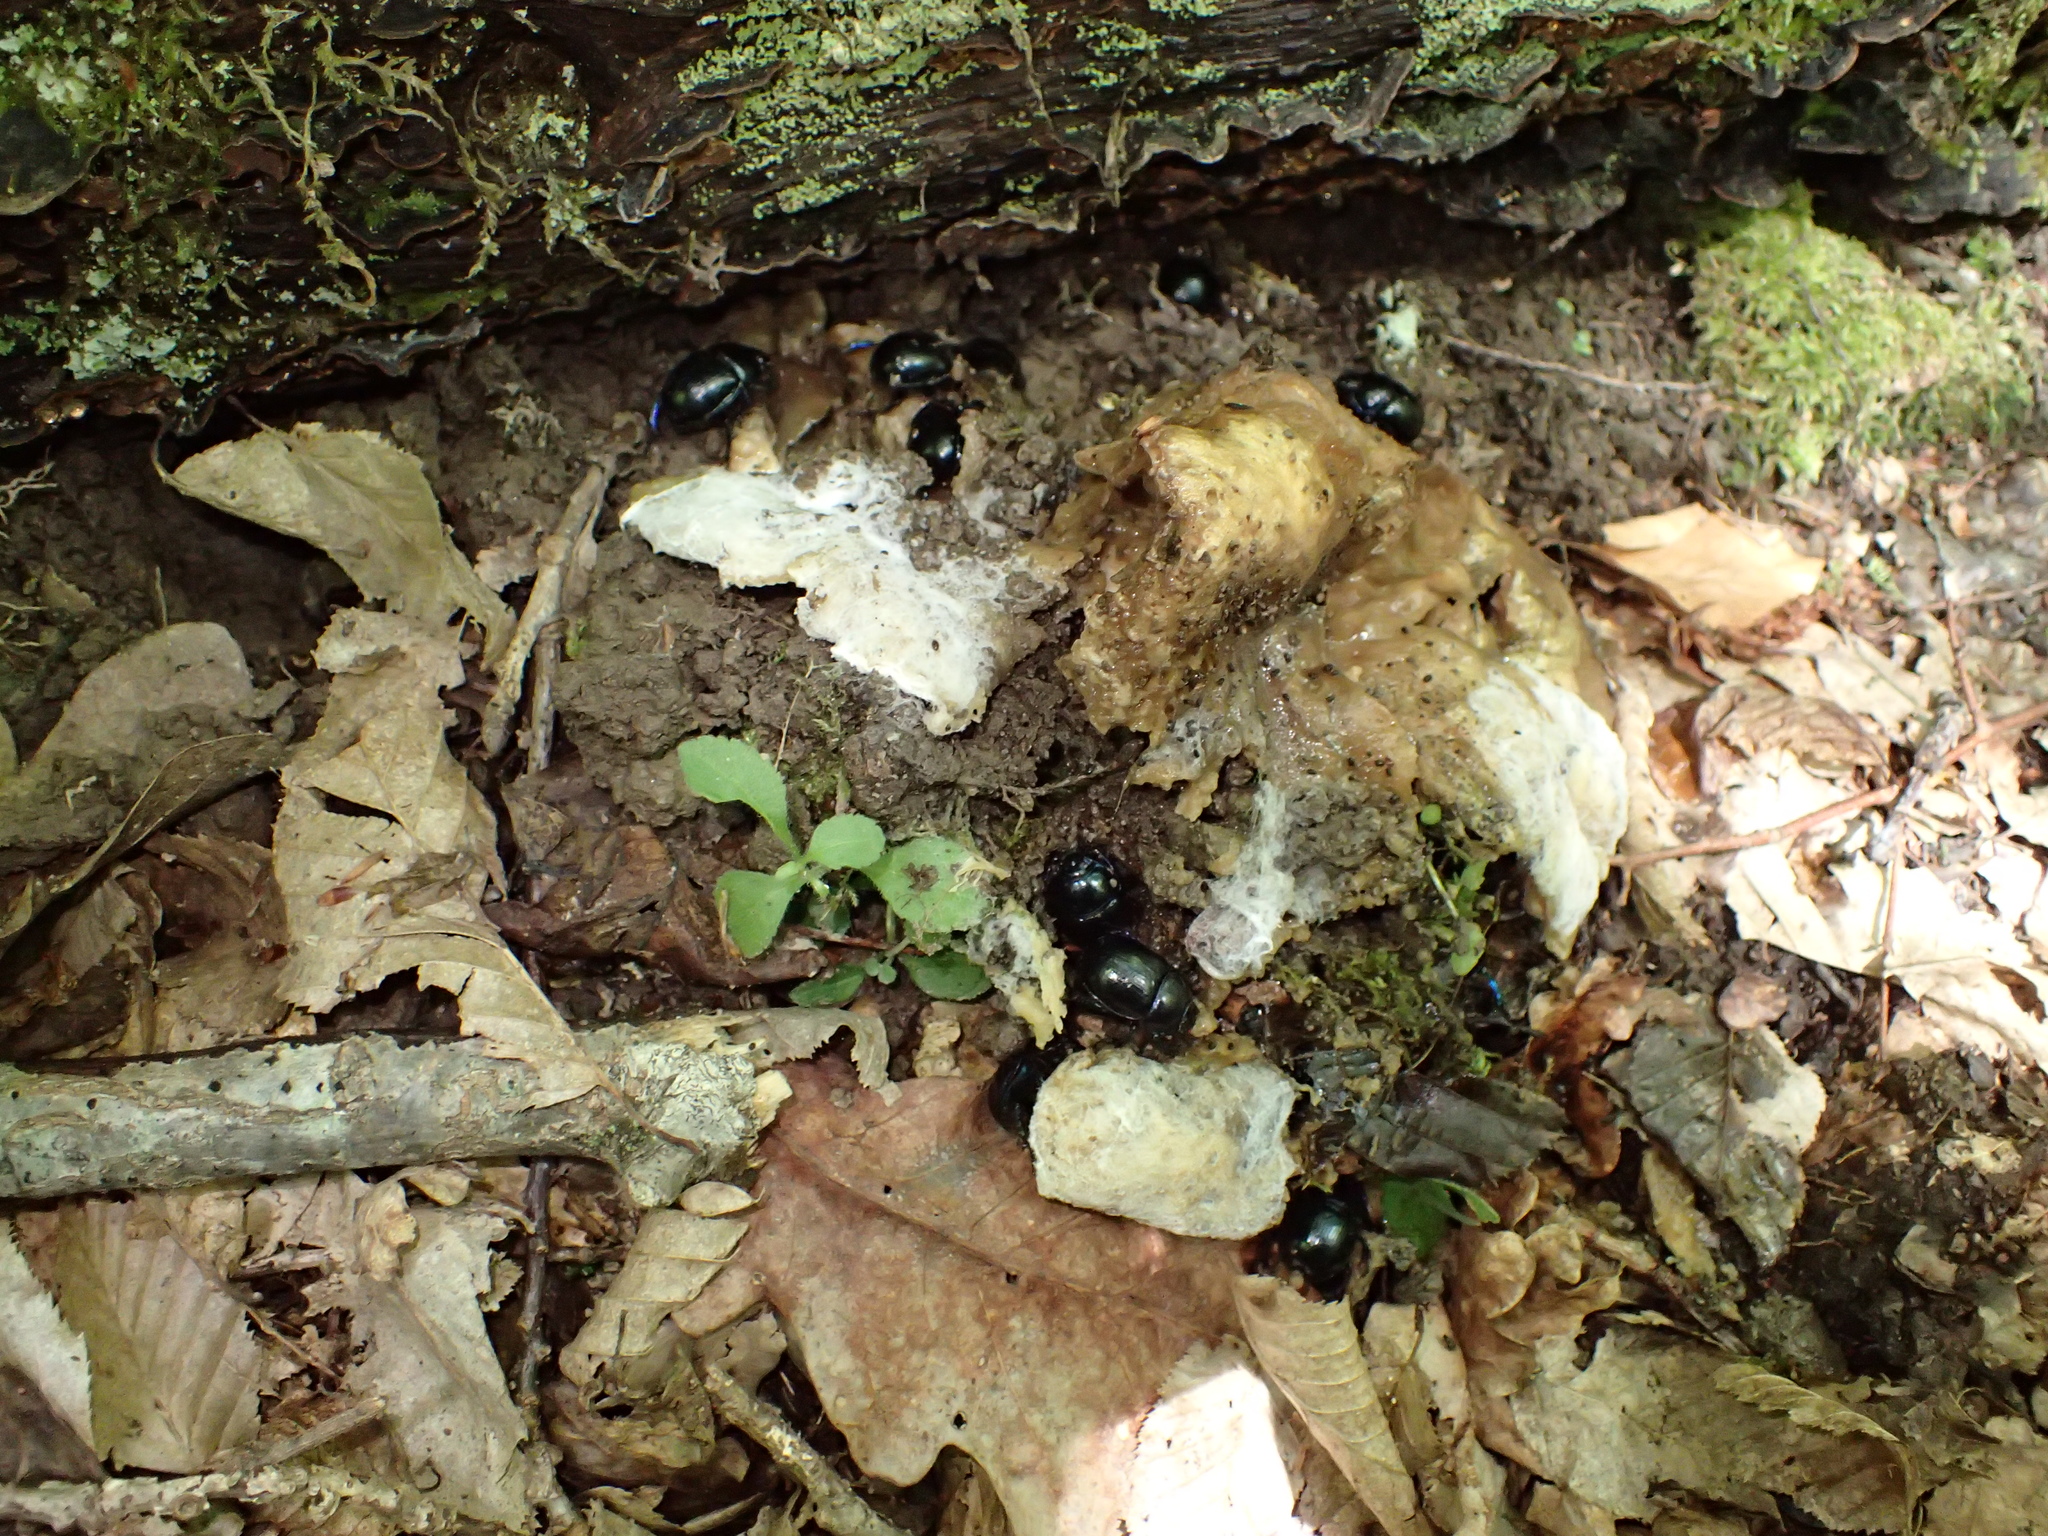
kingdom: Animalia
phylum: Arthropoda
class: Insecta
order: Coleoptera
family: Geotrupidae
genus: Anoplotrupes
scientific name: Anoplotrupes stercorosus
